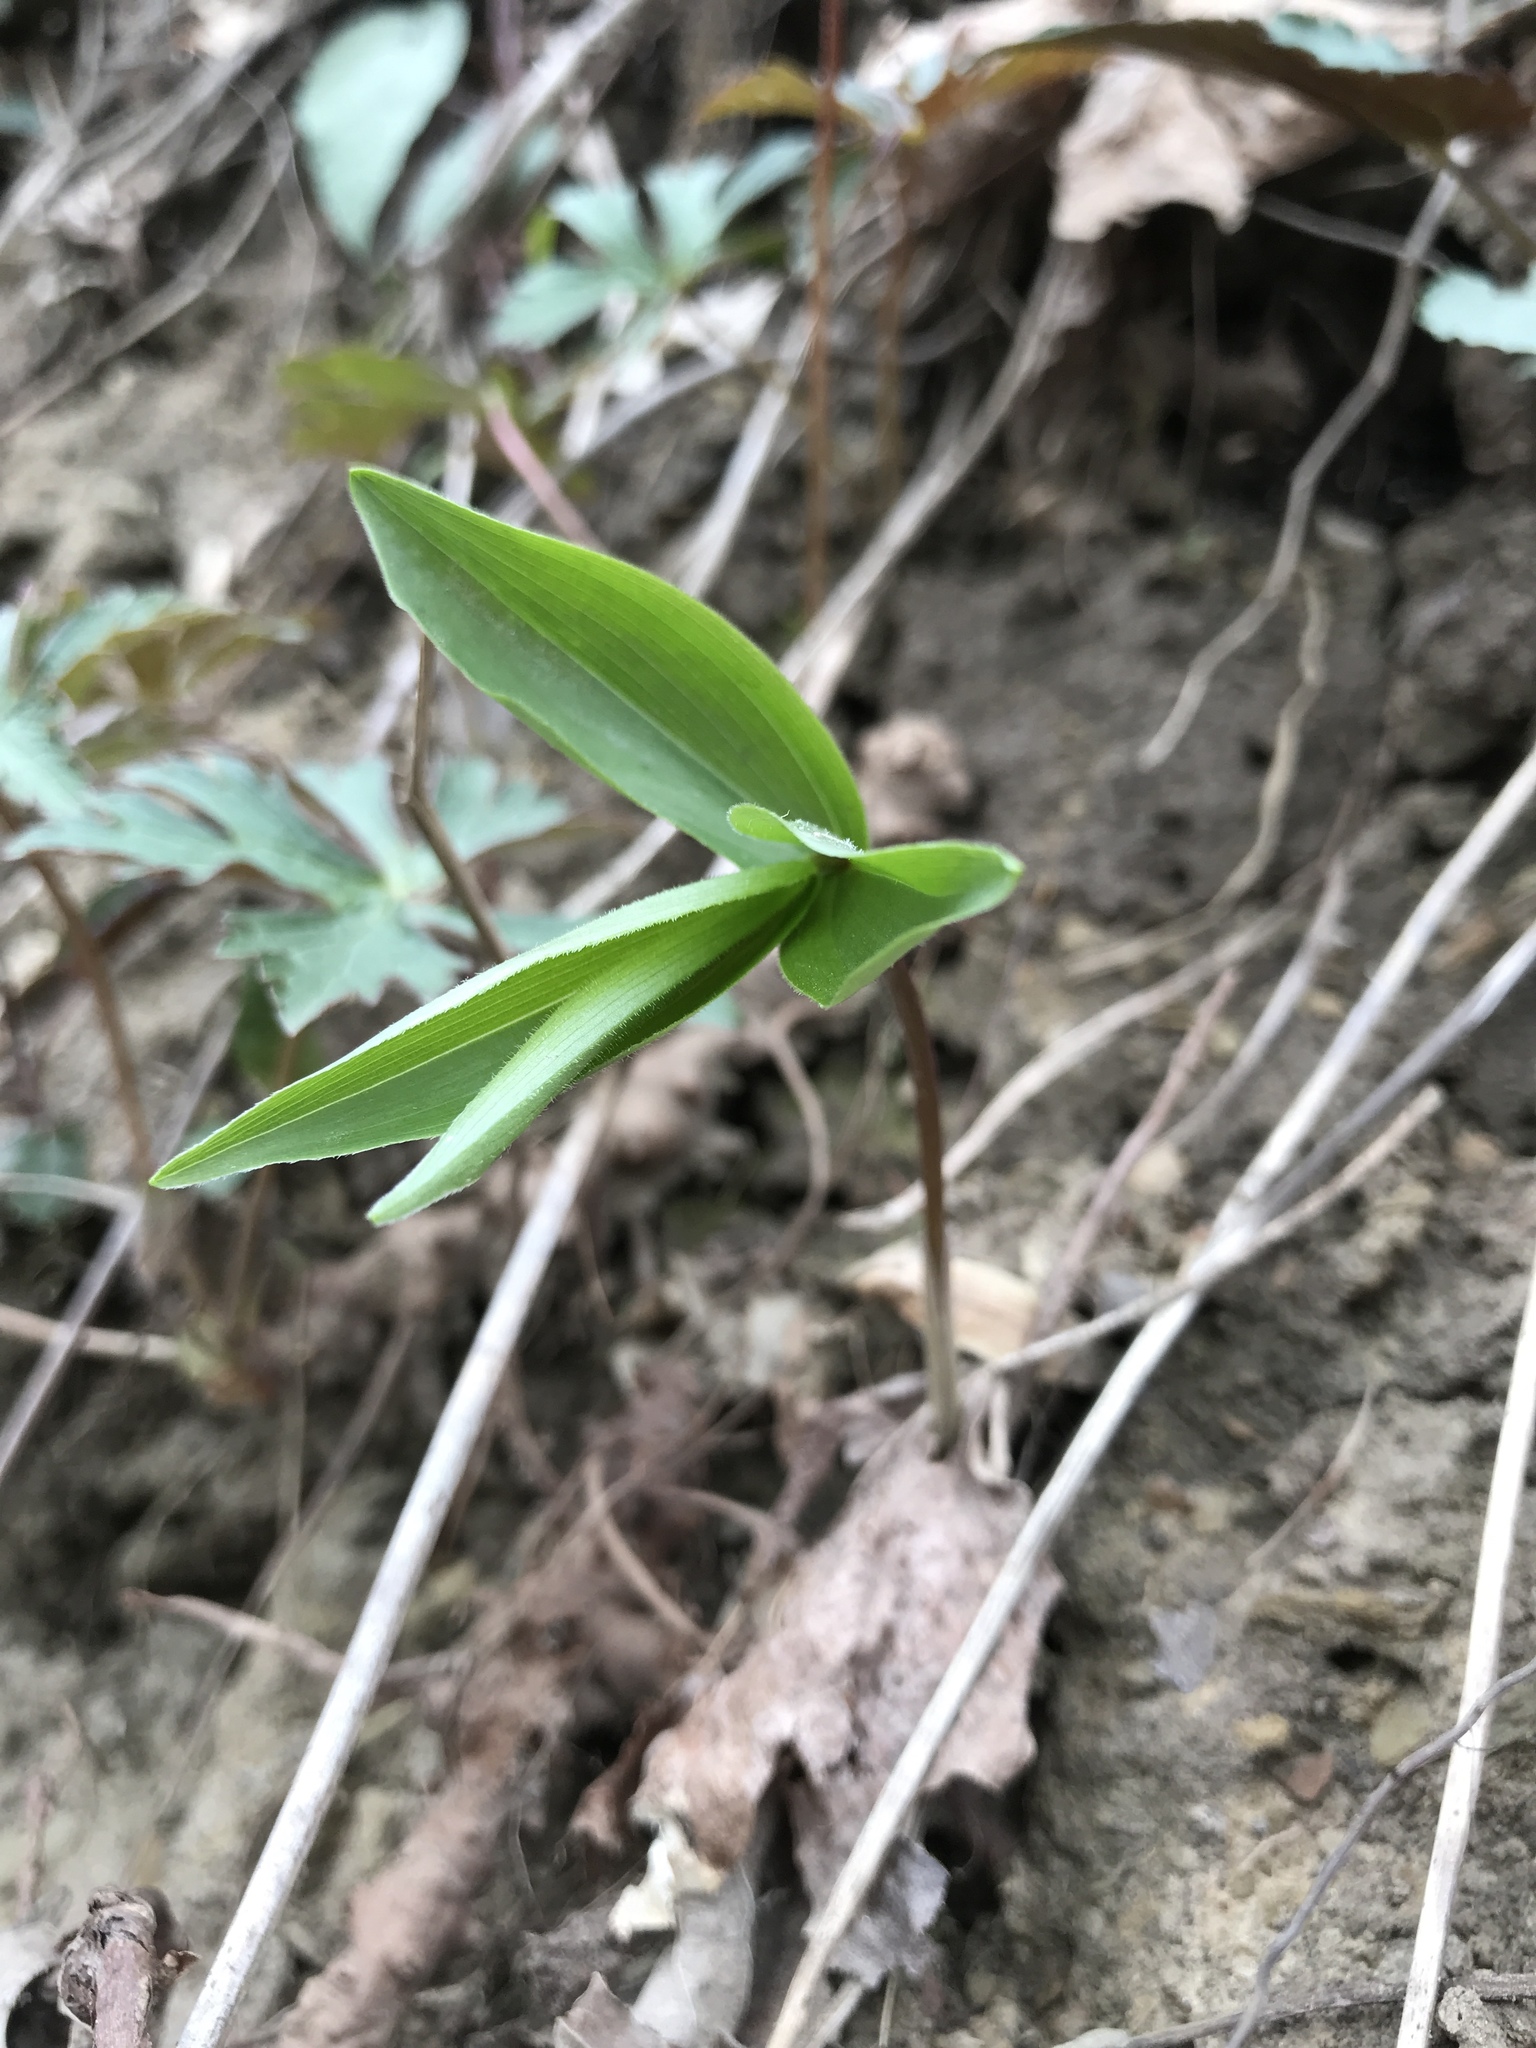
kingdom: Plantae
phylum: Tracheophyta
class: Liliopsida
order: Asparagales
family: Asparagaceae
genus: Maianthemum
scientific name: Maianthemum racemosum
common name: False spikenard
